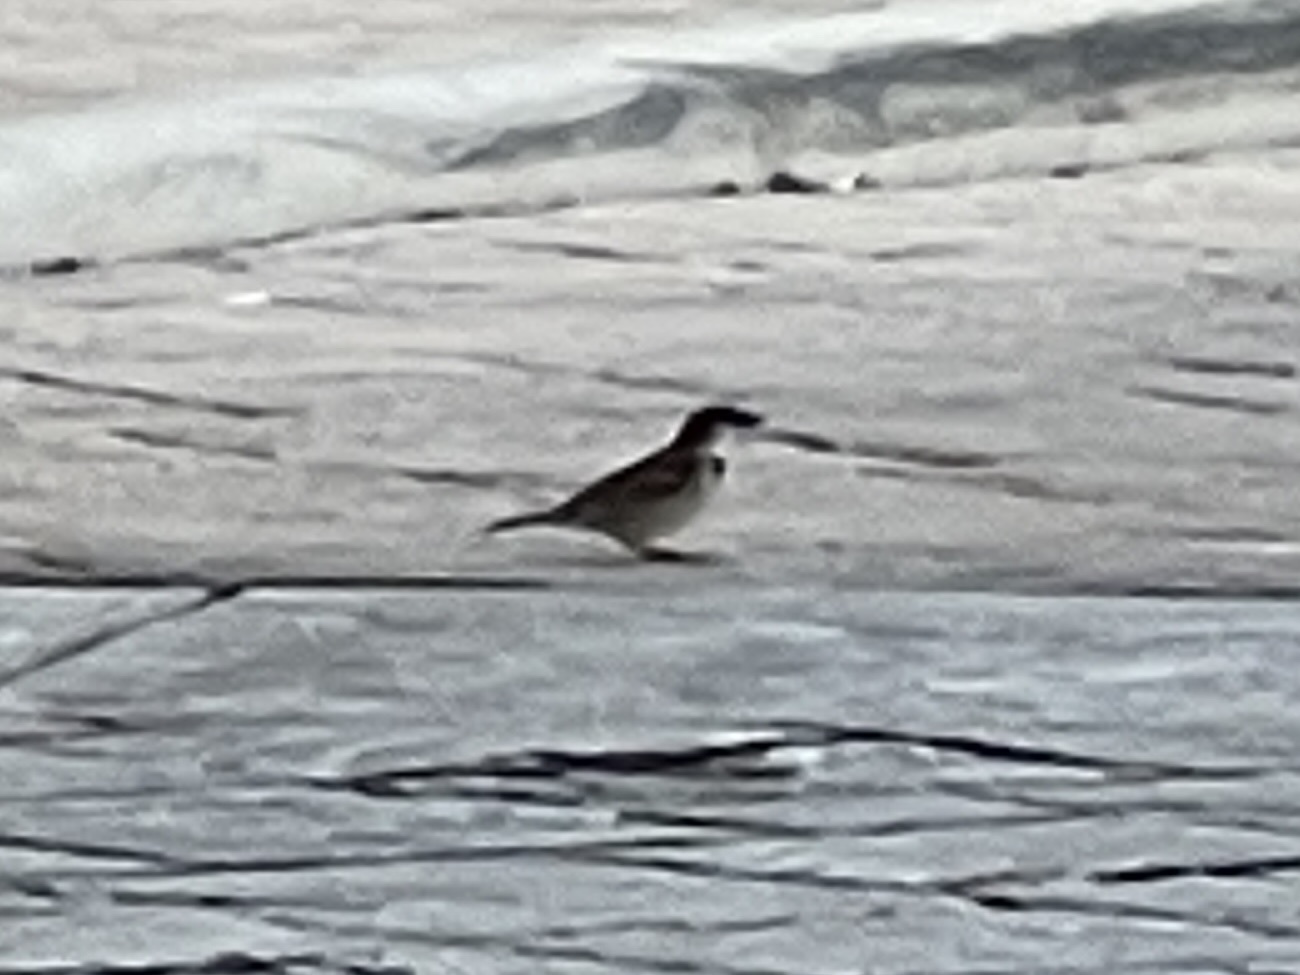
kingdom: Animalia
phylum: Chordata
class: Aves
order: Passeriformes
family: Passeridae
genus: Passer
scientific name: Passer domesticus
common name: House sparrow
